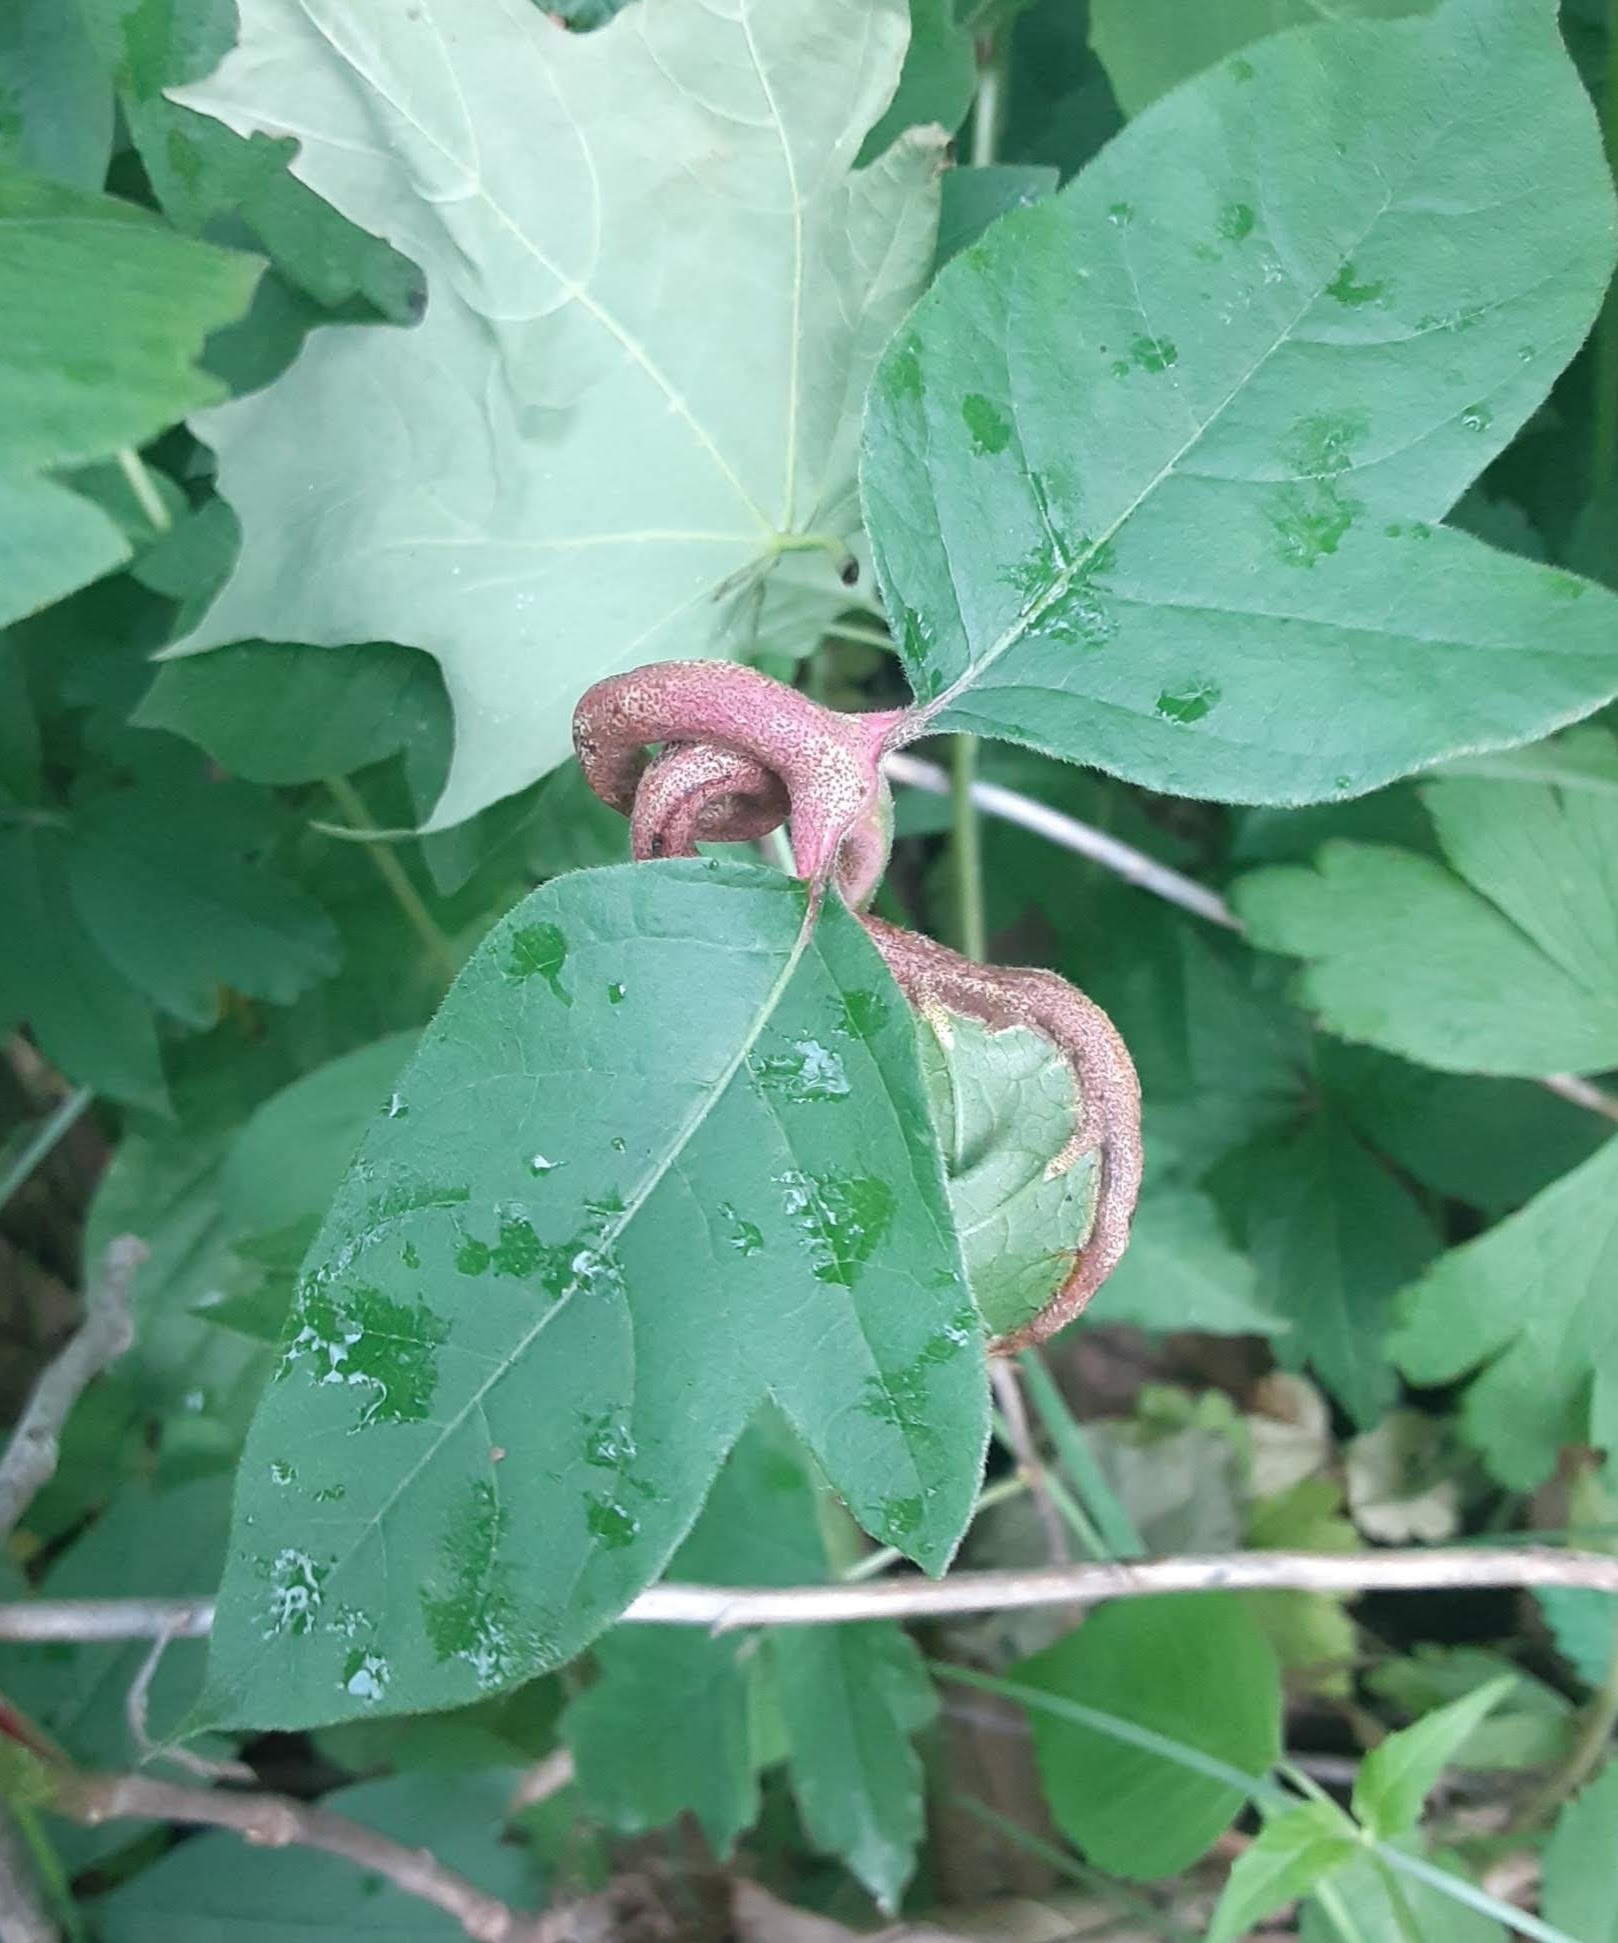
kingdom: Fungi
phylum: Basidiomycota
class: Pucciniomycetes
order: Pucciniales
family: Pileolariaceae
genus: Pileolaria
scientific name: Pileolaria brevipes
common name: Poison ivy rust
